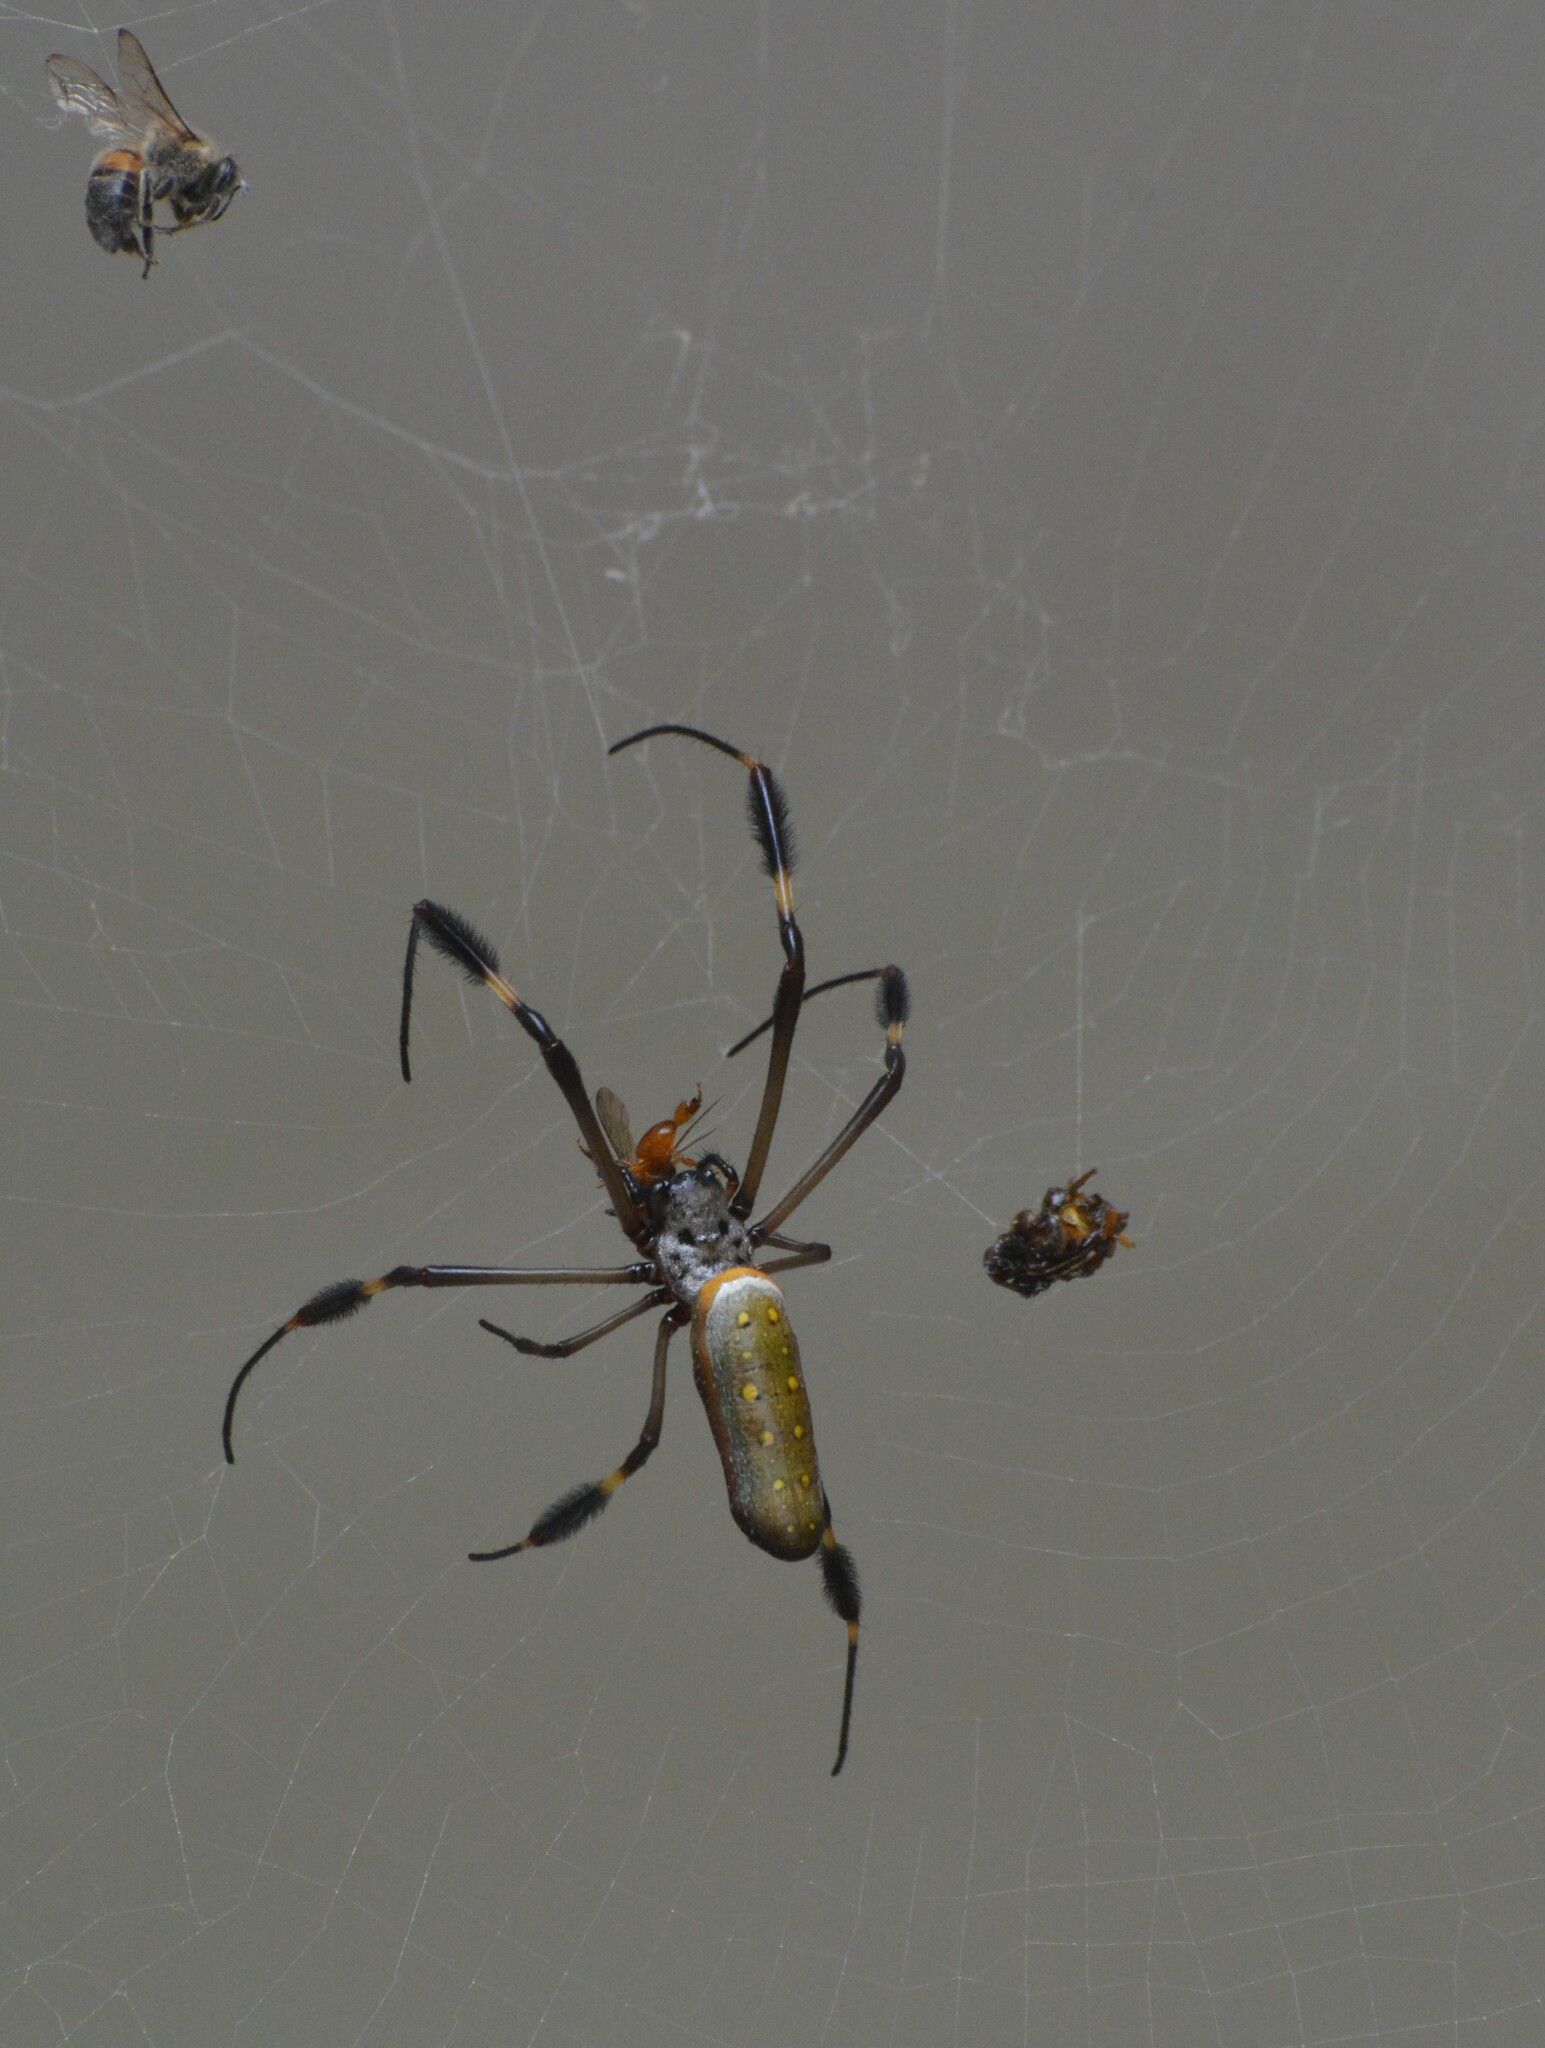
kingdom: Animalia
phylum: Arthropoda
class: Arachnida
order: Araneae
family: Araneidae
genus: Trichonephila
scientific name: Trichonephila clavipes
